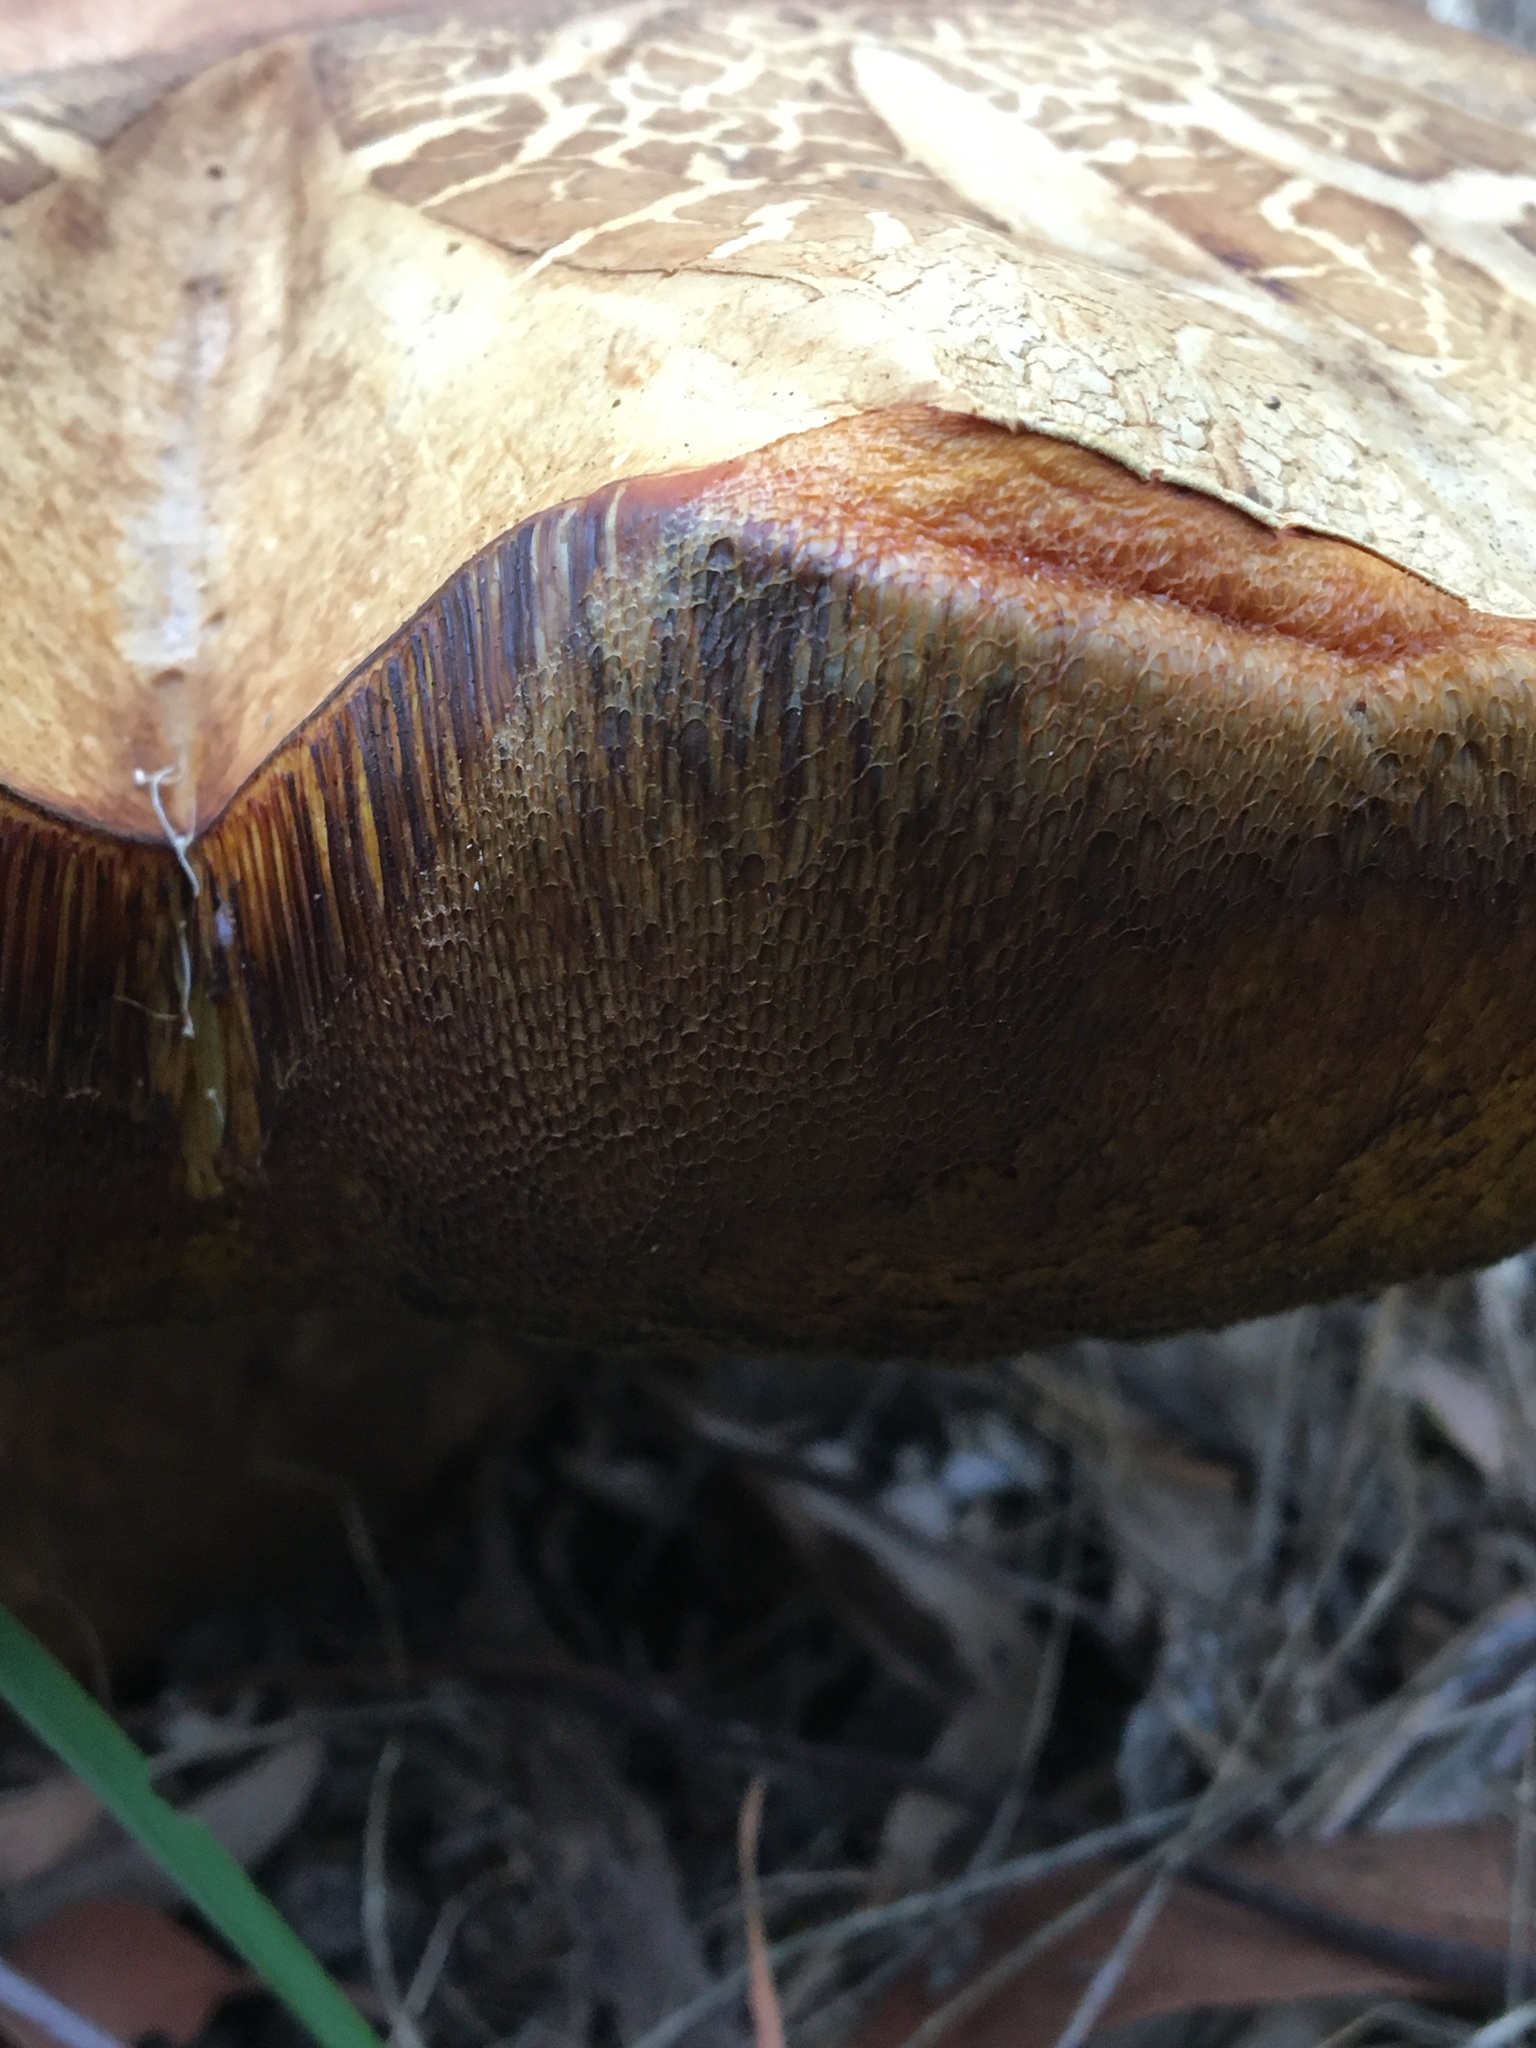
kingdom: Fungi
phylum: Basidiomycota
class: Agaricomycetes
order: Boletales
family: Boletinellaceae
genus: Phlebopus
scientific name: Phlebopus marginatus
